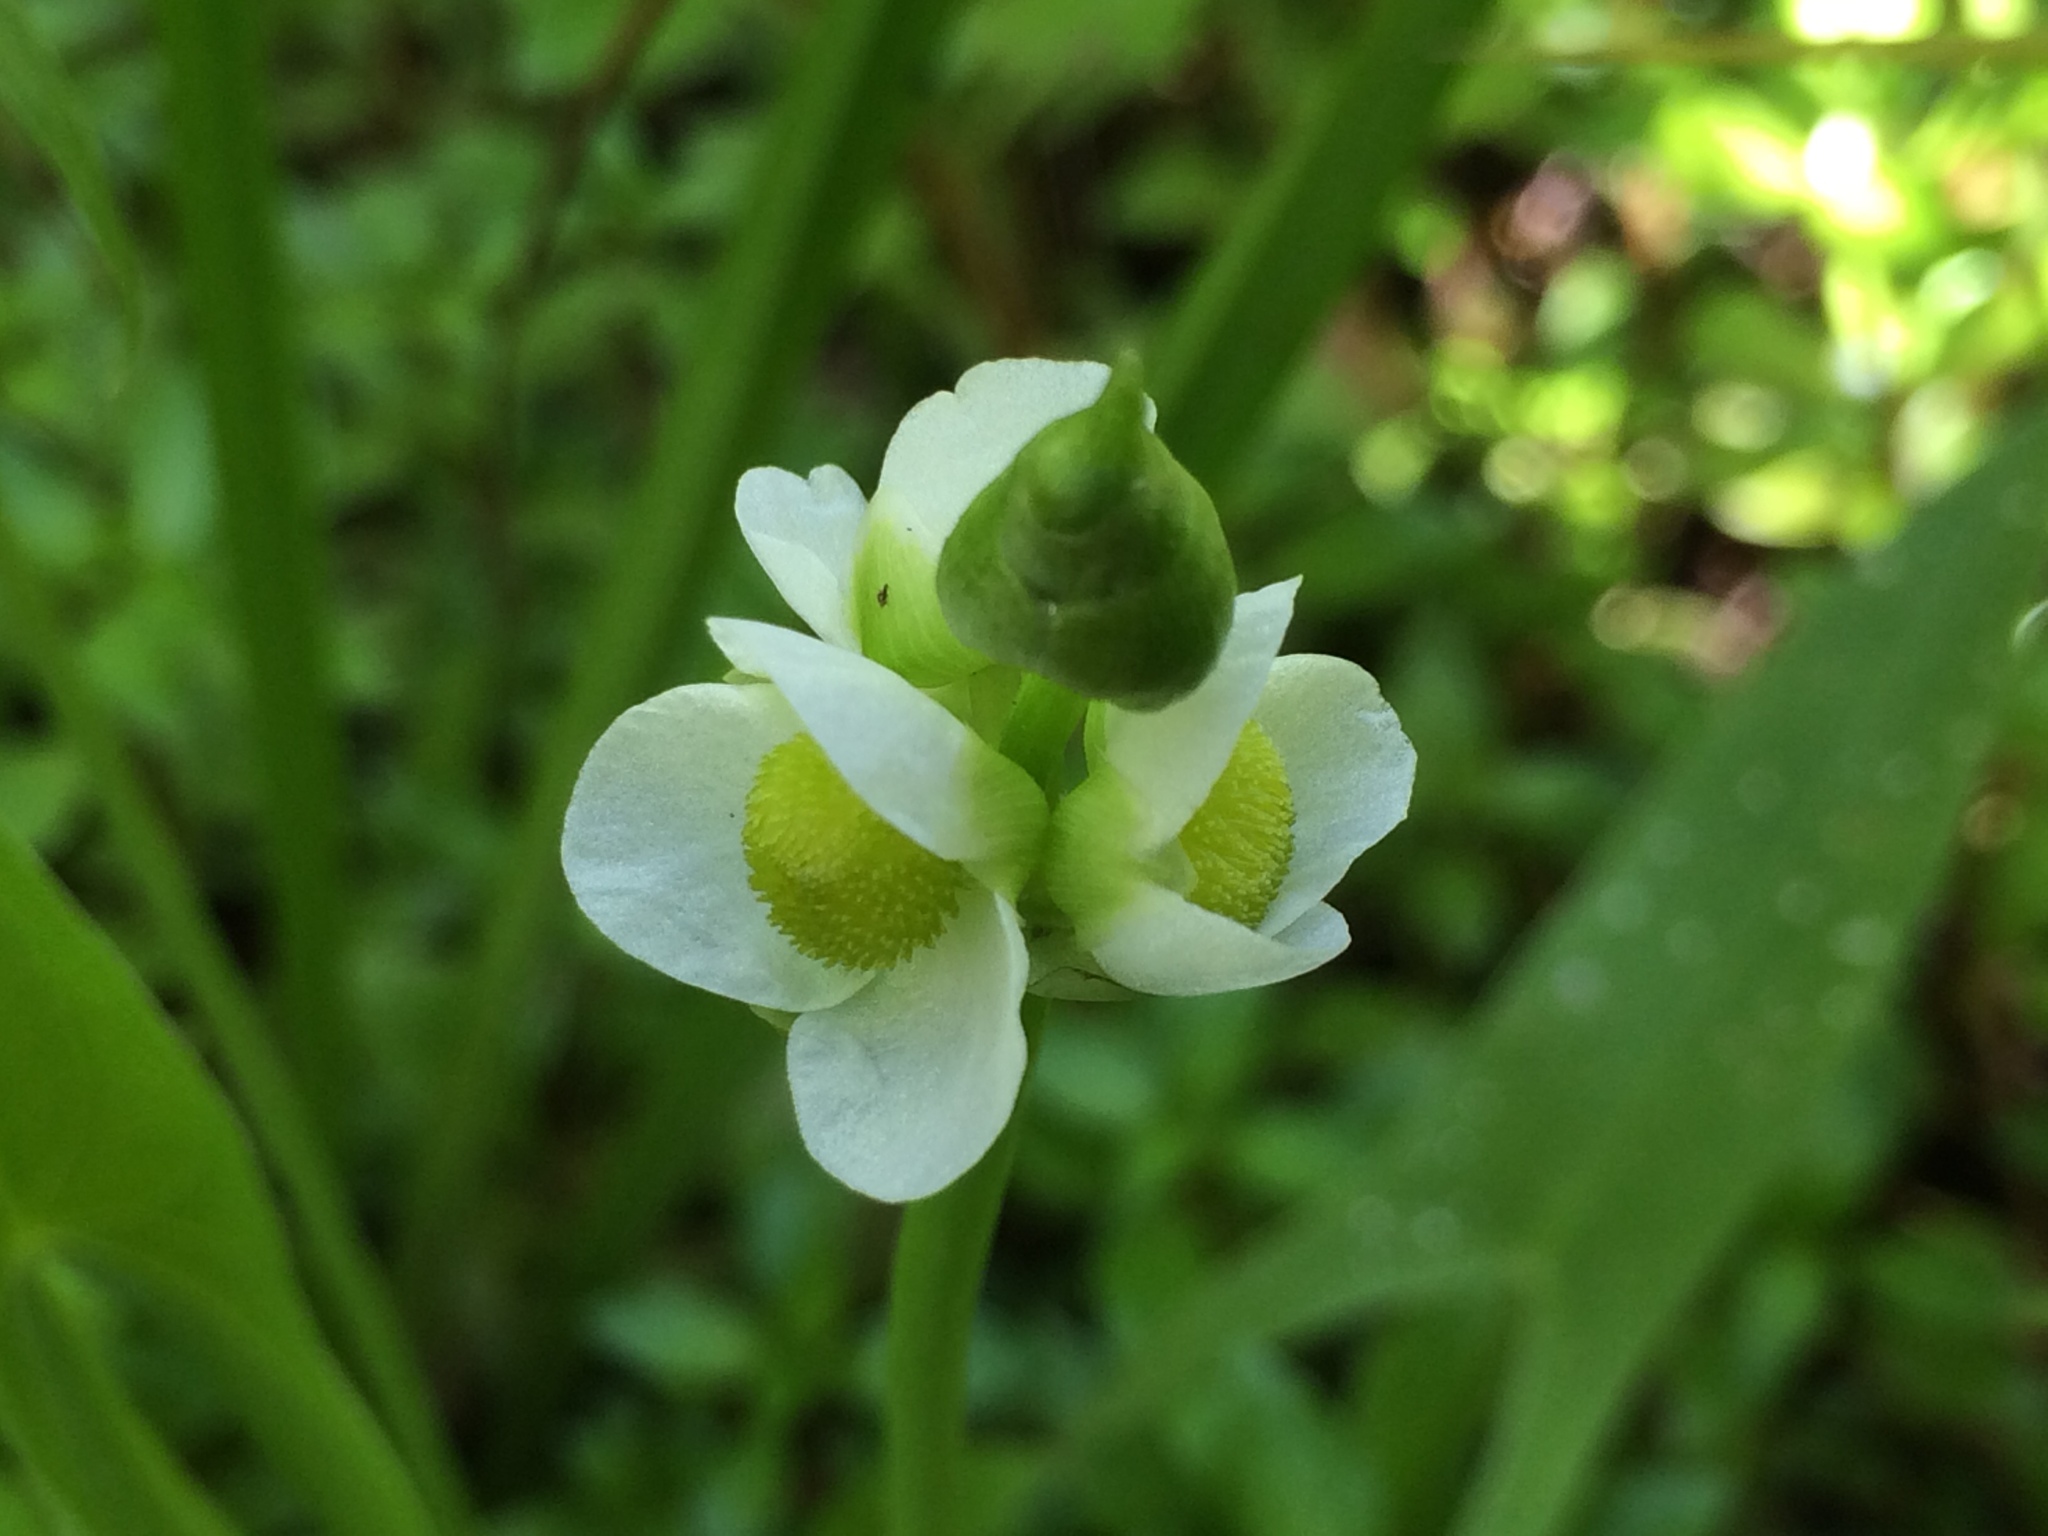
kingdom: Plantae
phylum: Tracheophyta
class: Liliopsida
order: Alismatales
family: Alismataceae
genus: Sagittaria
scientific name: Sagittaria latifolia
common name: Duck-potato
